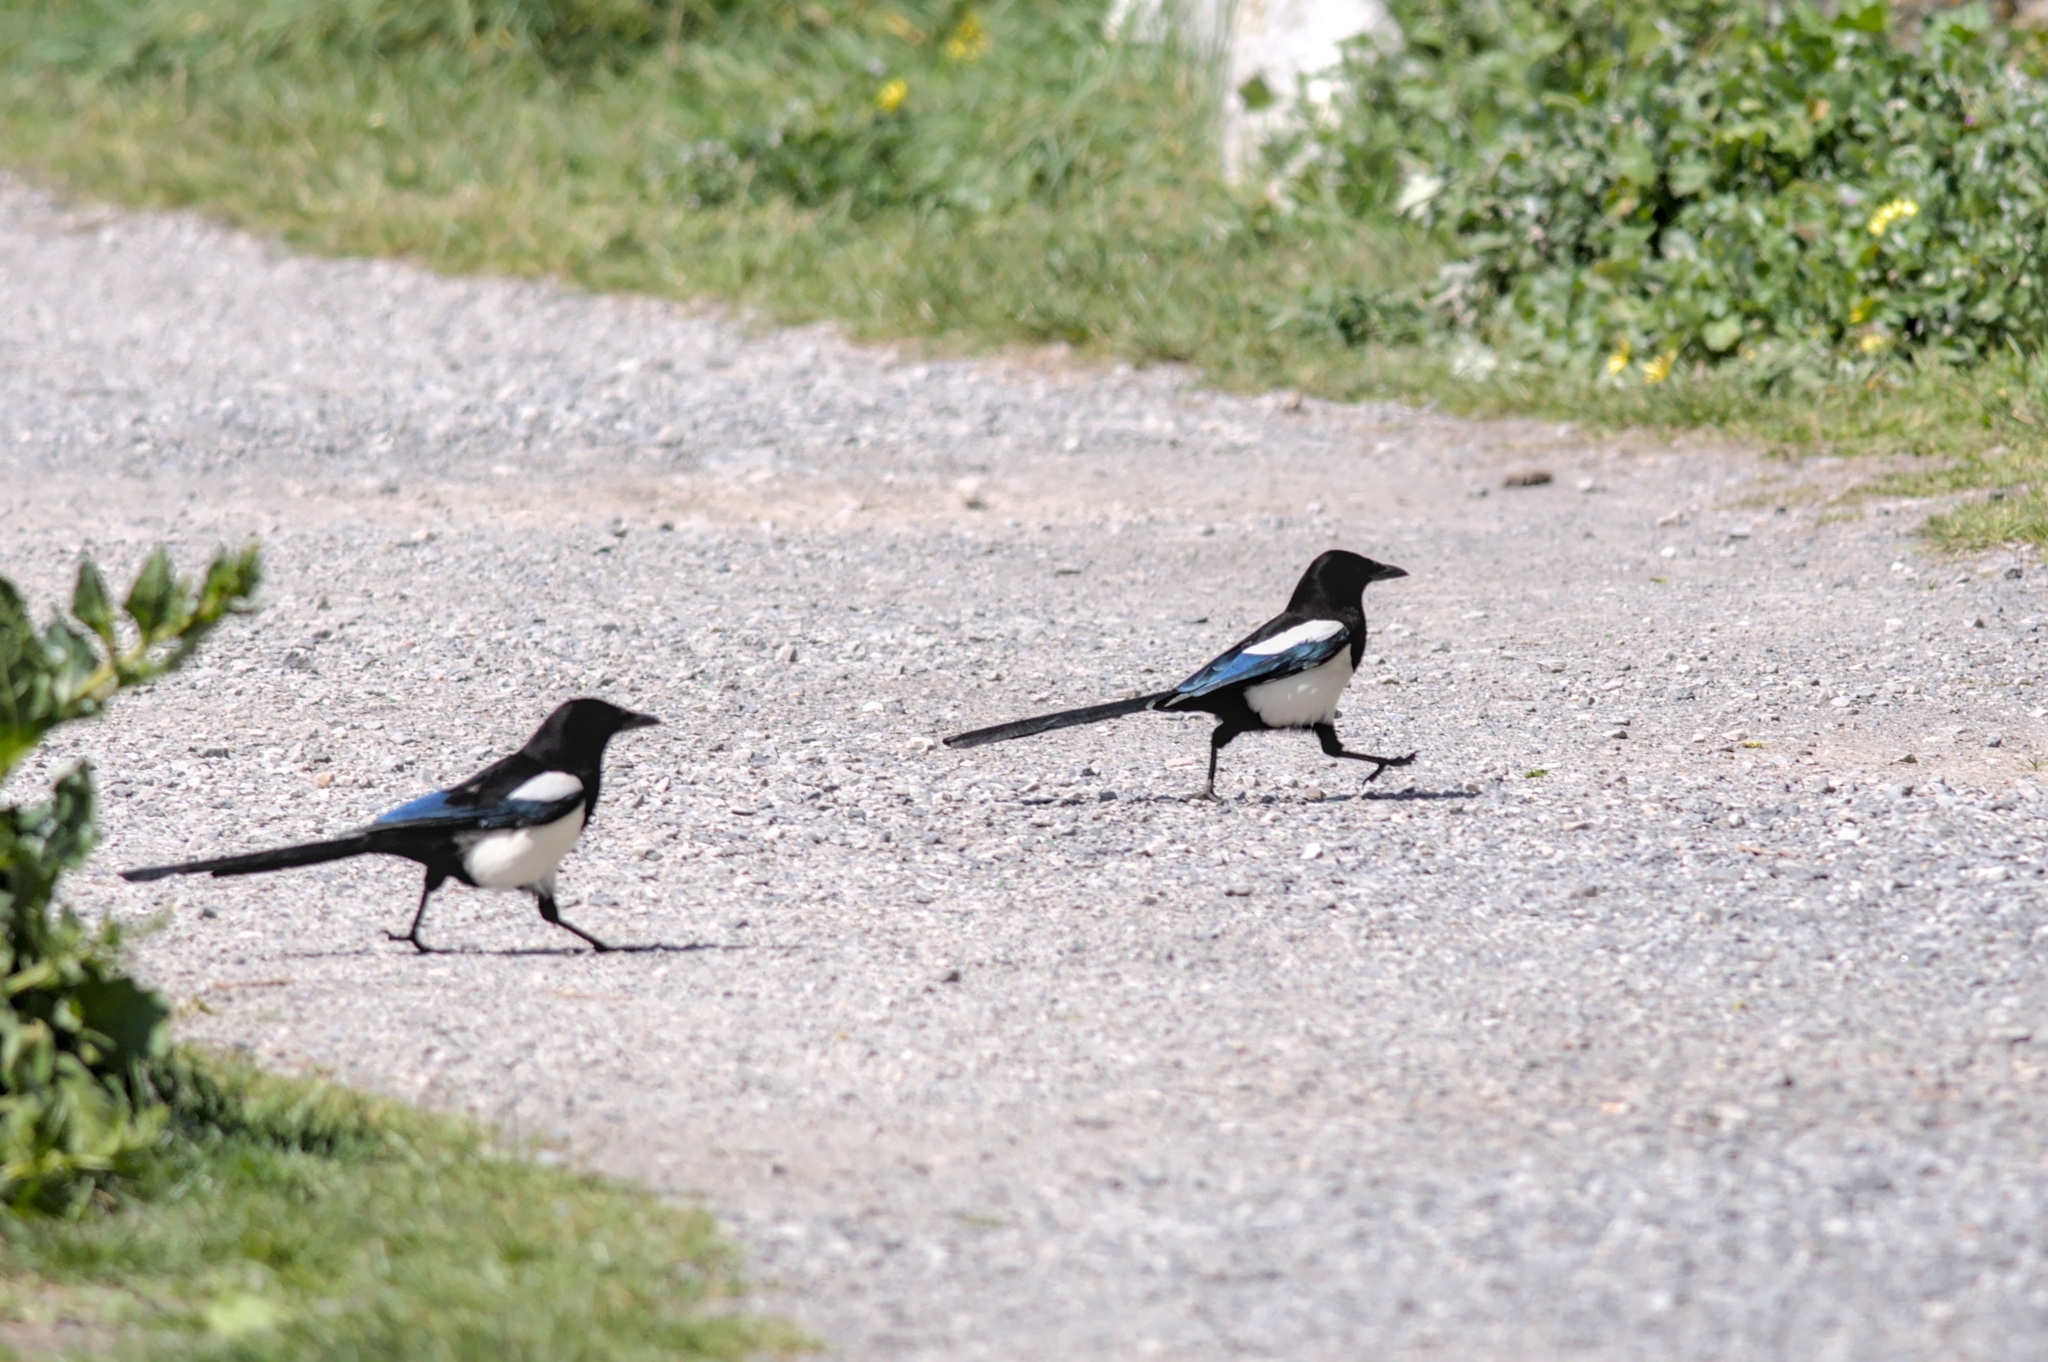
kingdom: Animalia
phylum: Chordata
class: Aves
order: Passeriformes
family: Corvidae
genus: Pica
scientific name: Pica pica
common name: Eurasian magpie
